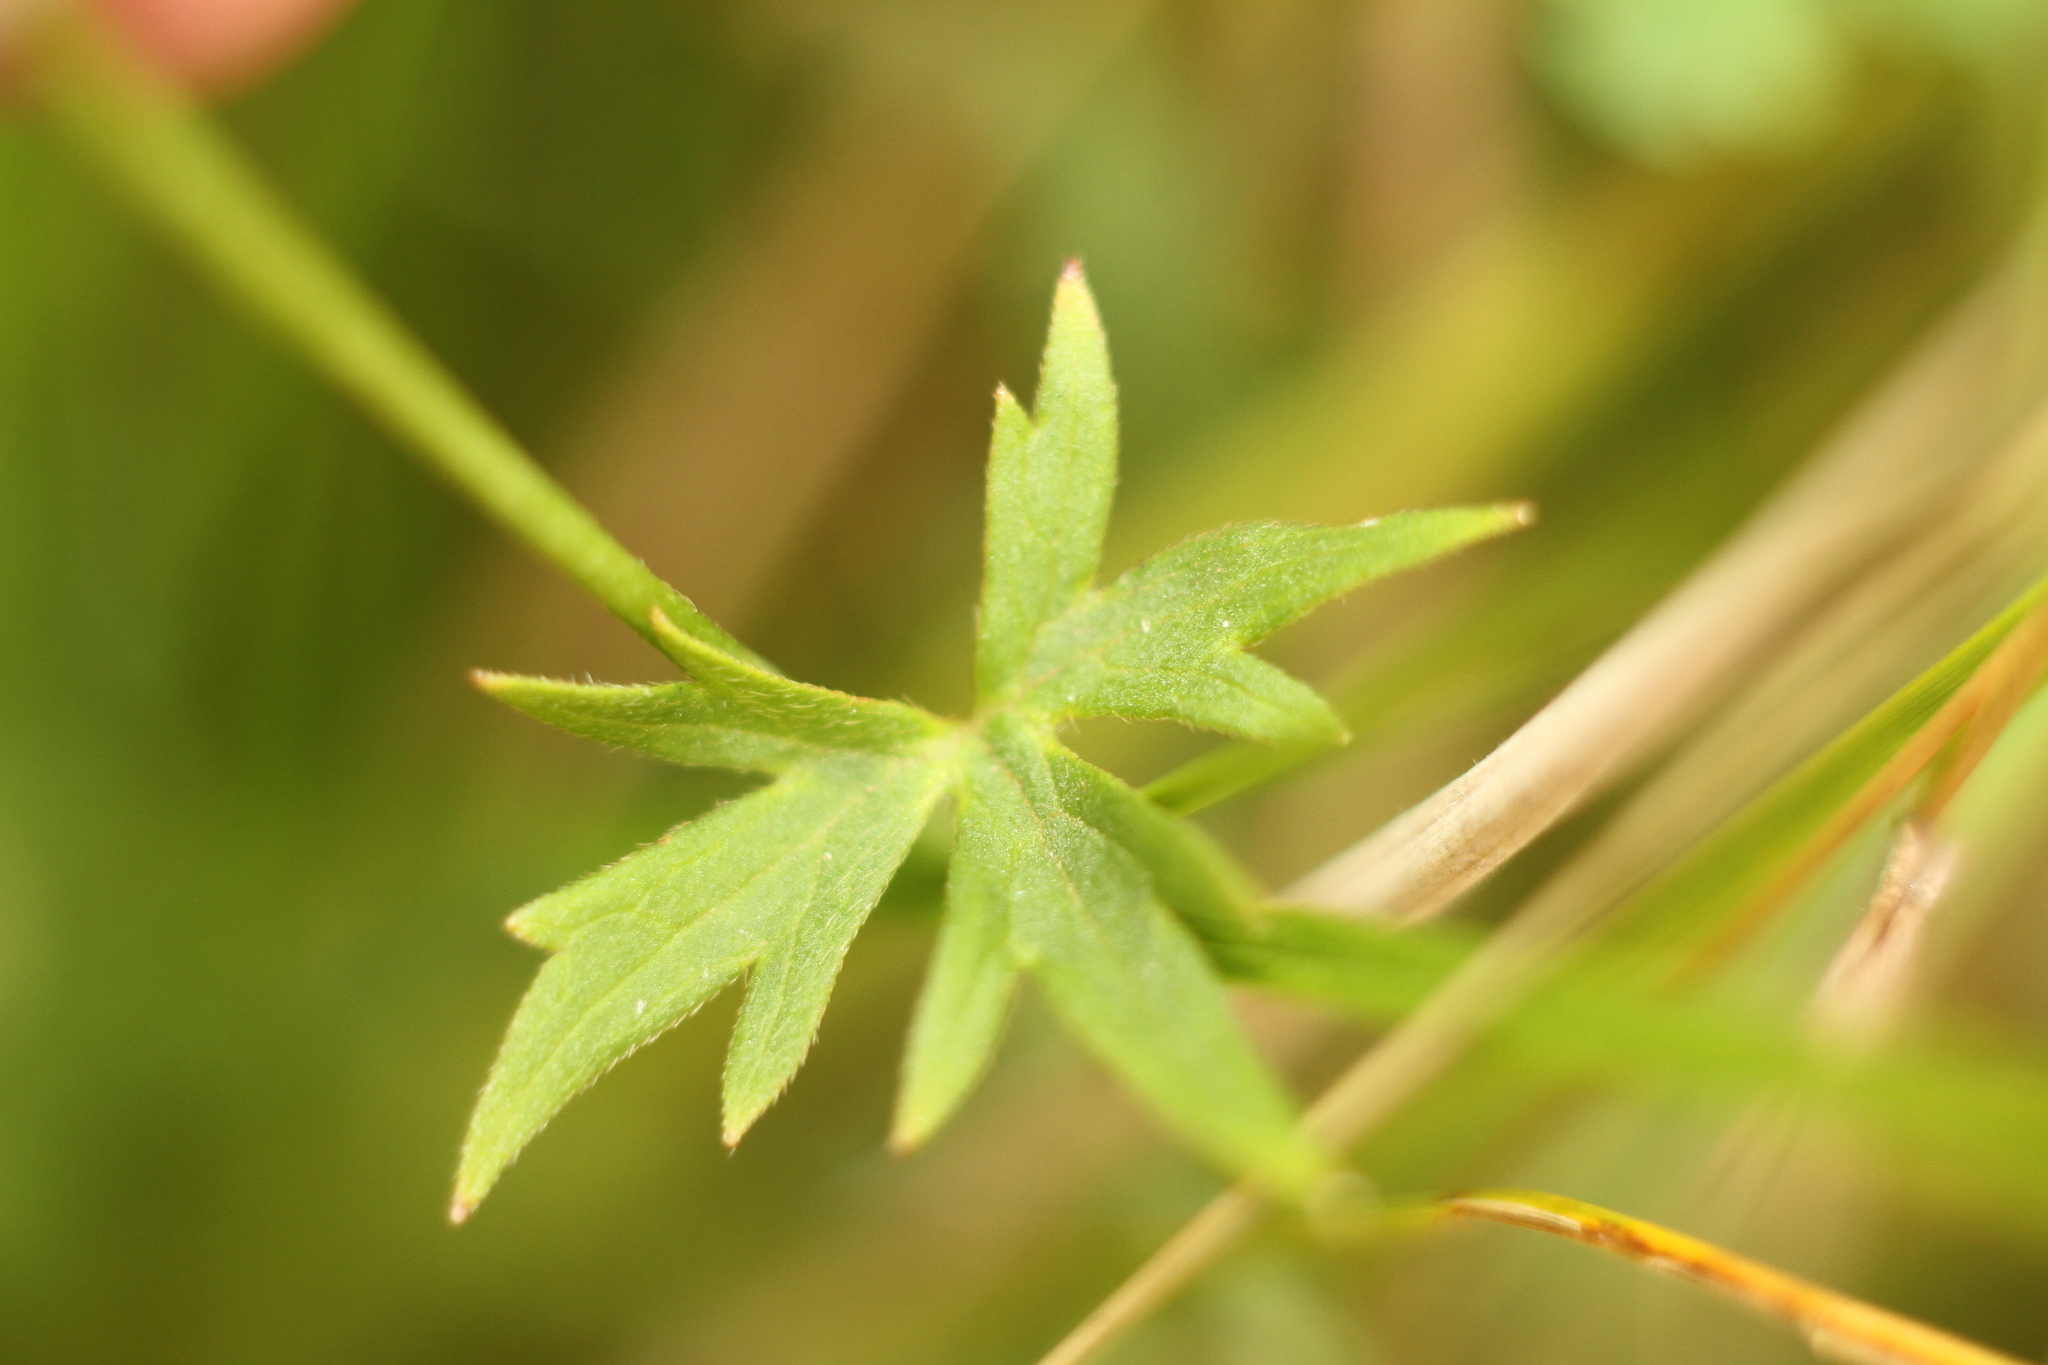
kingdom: Plantae
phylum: Tracheophyta
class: Magnoliopsida
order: Ranunculales
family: Ranunculaceae
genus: Ranunculus
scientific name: Ranunculus acris
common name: Meadow buttercup
